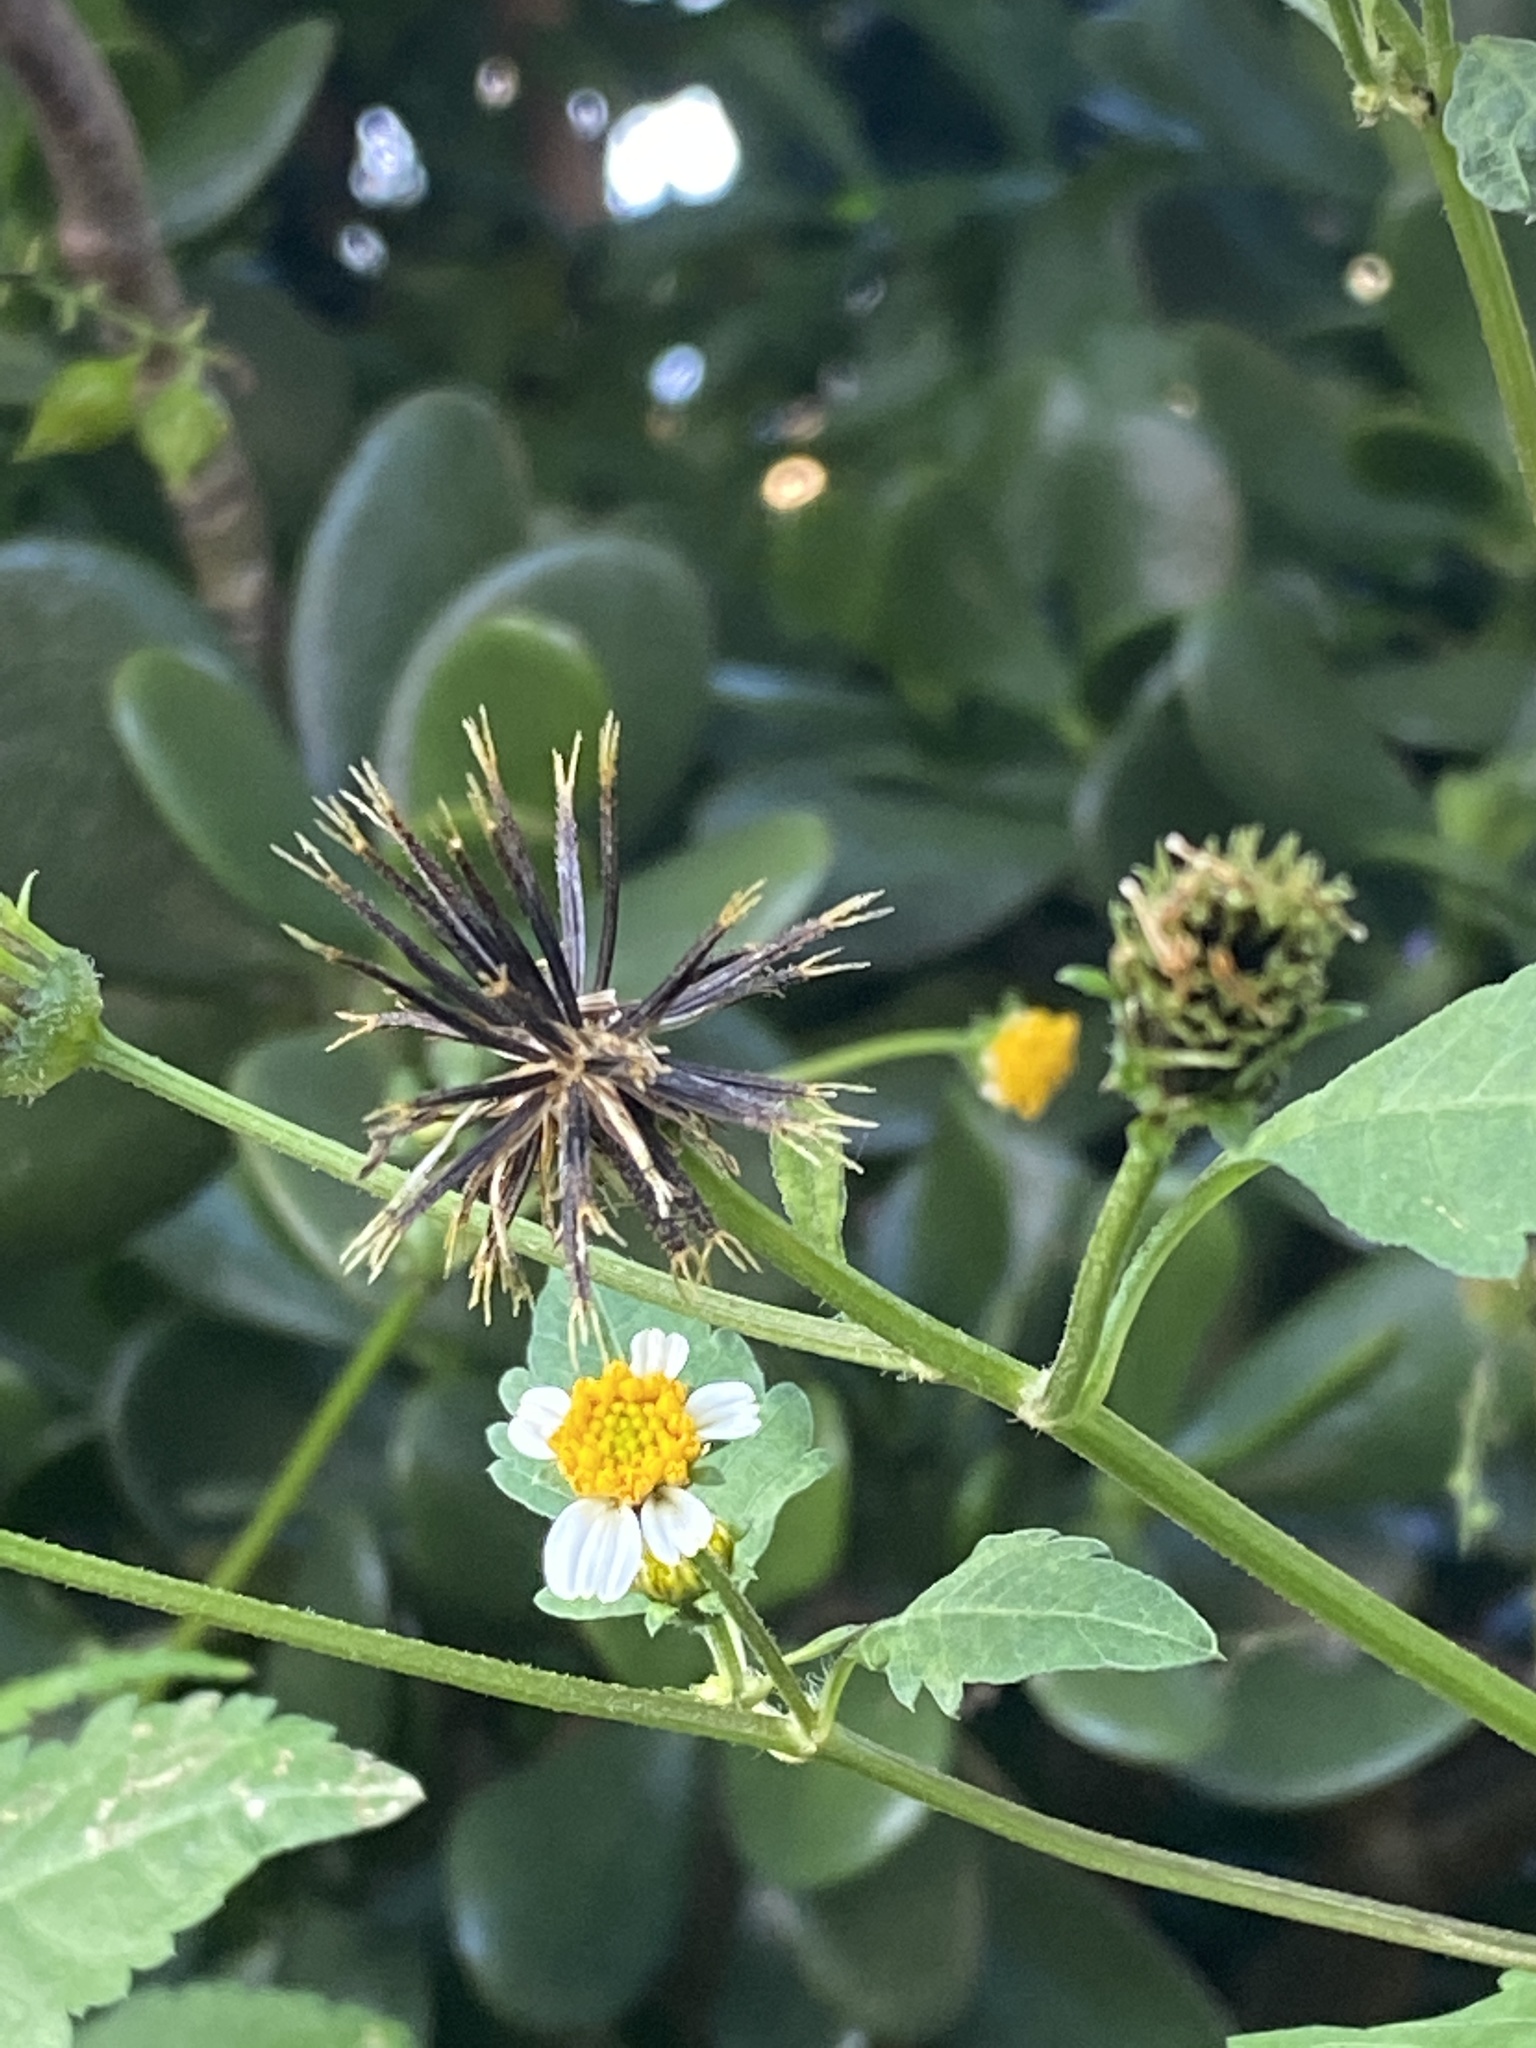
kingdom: Plantae
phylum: Tracheophyta
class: Magnoliopsida
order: Asterales
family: Asteraceae
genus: Bidens
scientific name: Bidens pilosa
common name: Black-jack
